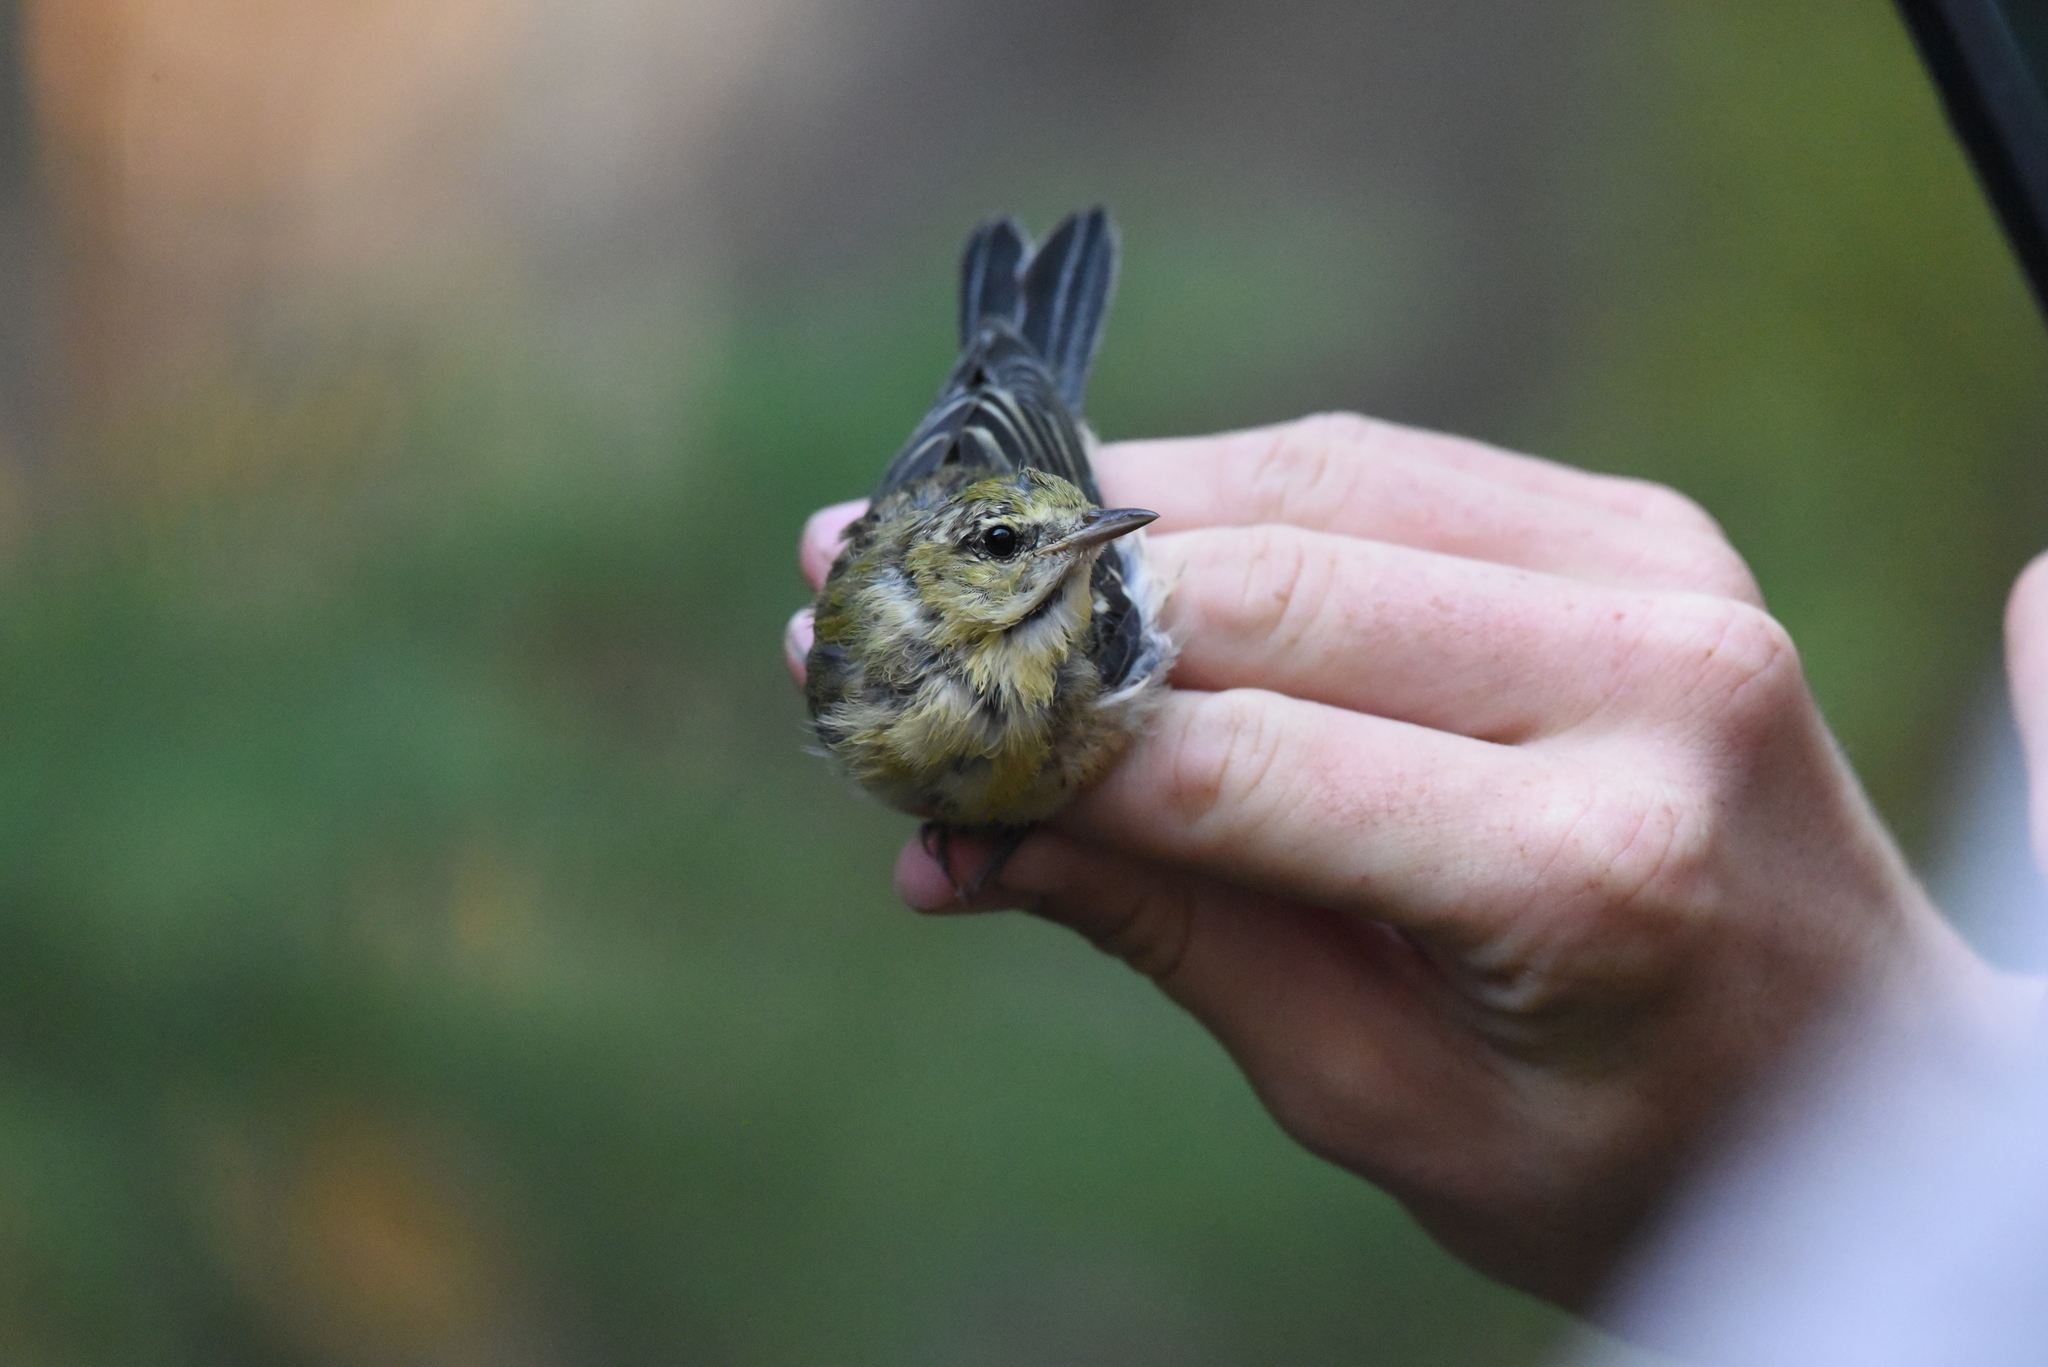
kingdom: Animalia
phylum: Chordata
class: Aves
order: Passeriformes
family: Parulidae
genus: Setophaga
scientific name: Setophaga castanea
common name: Bay-breasted warbler
